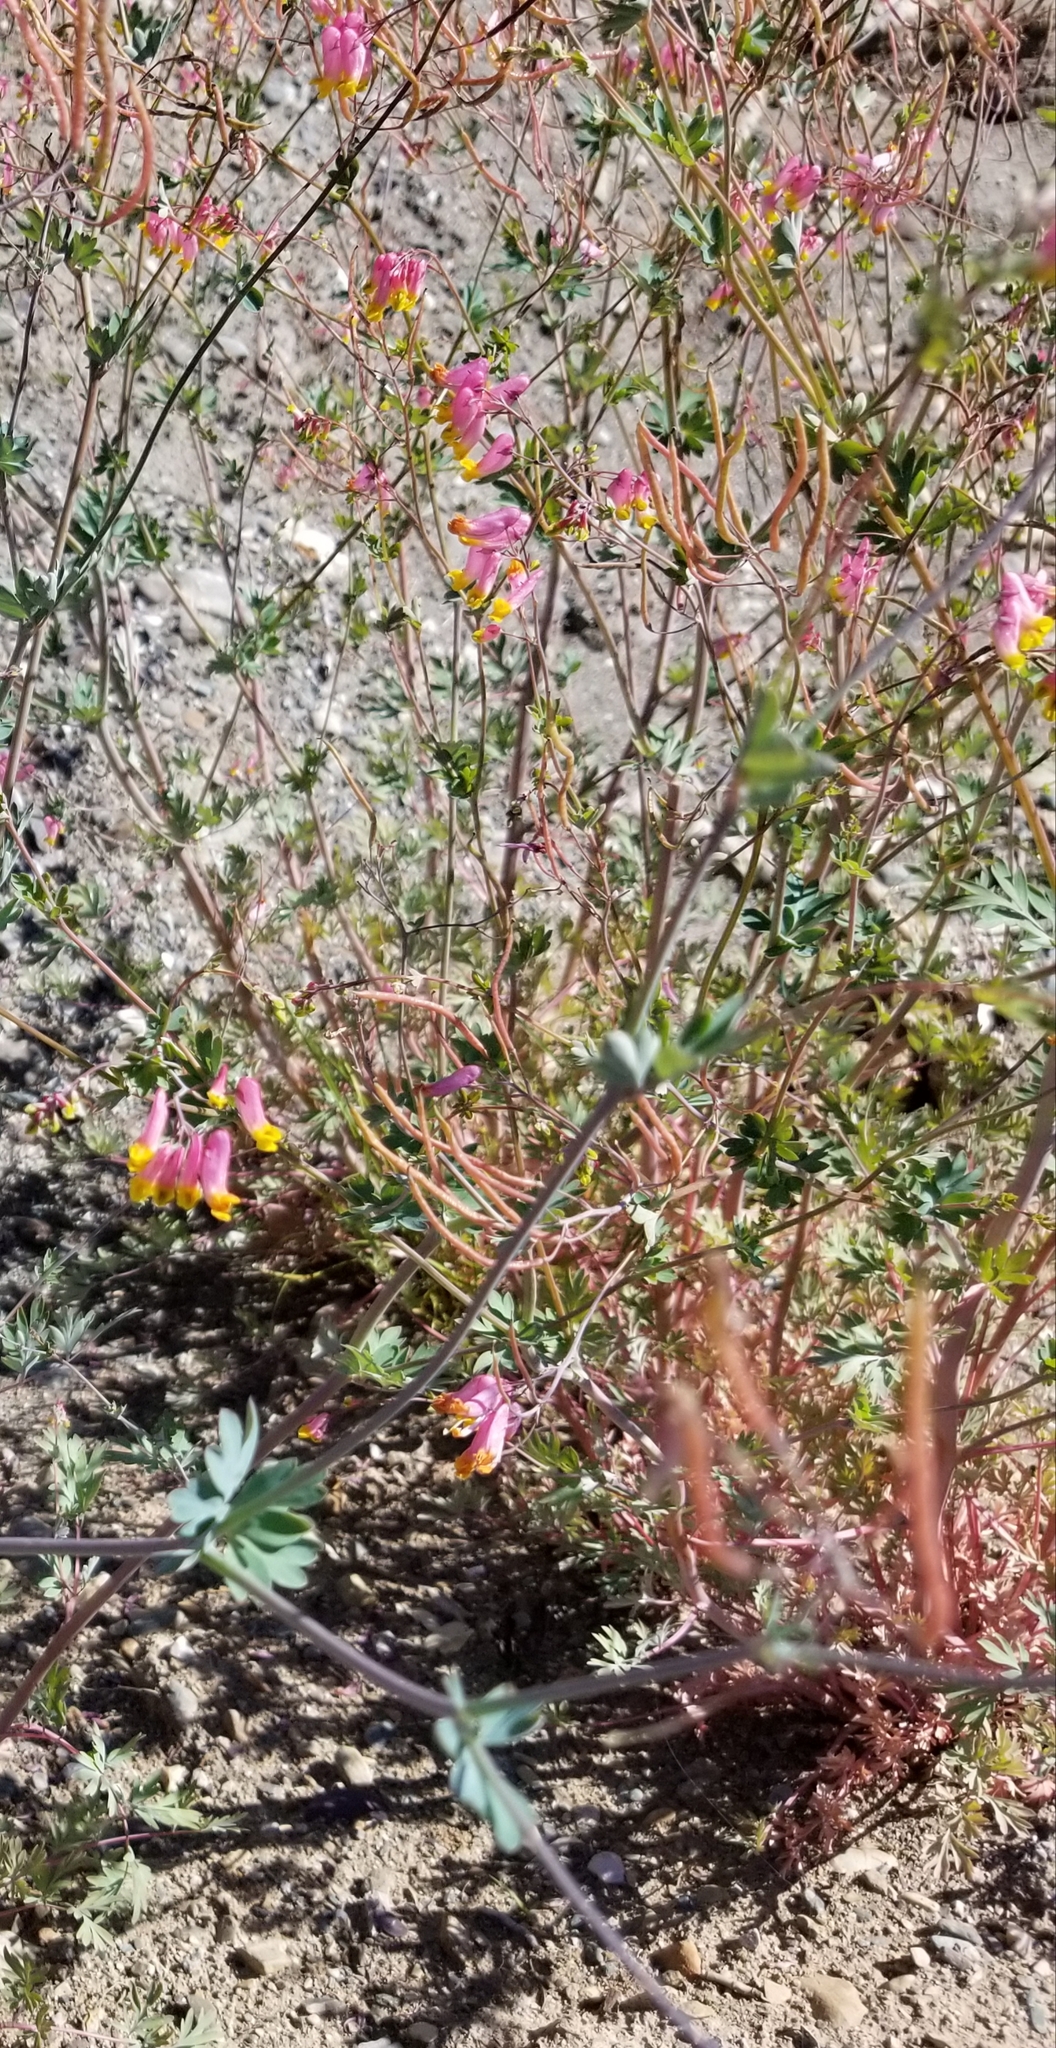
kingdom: Plantae
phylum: Tracheophyta
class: Magnoliopsida
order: Ranunculales
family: Papaveraceae
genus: Capnoides
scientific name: Capnoides sempervirens
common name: Rock harlequin
